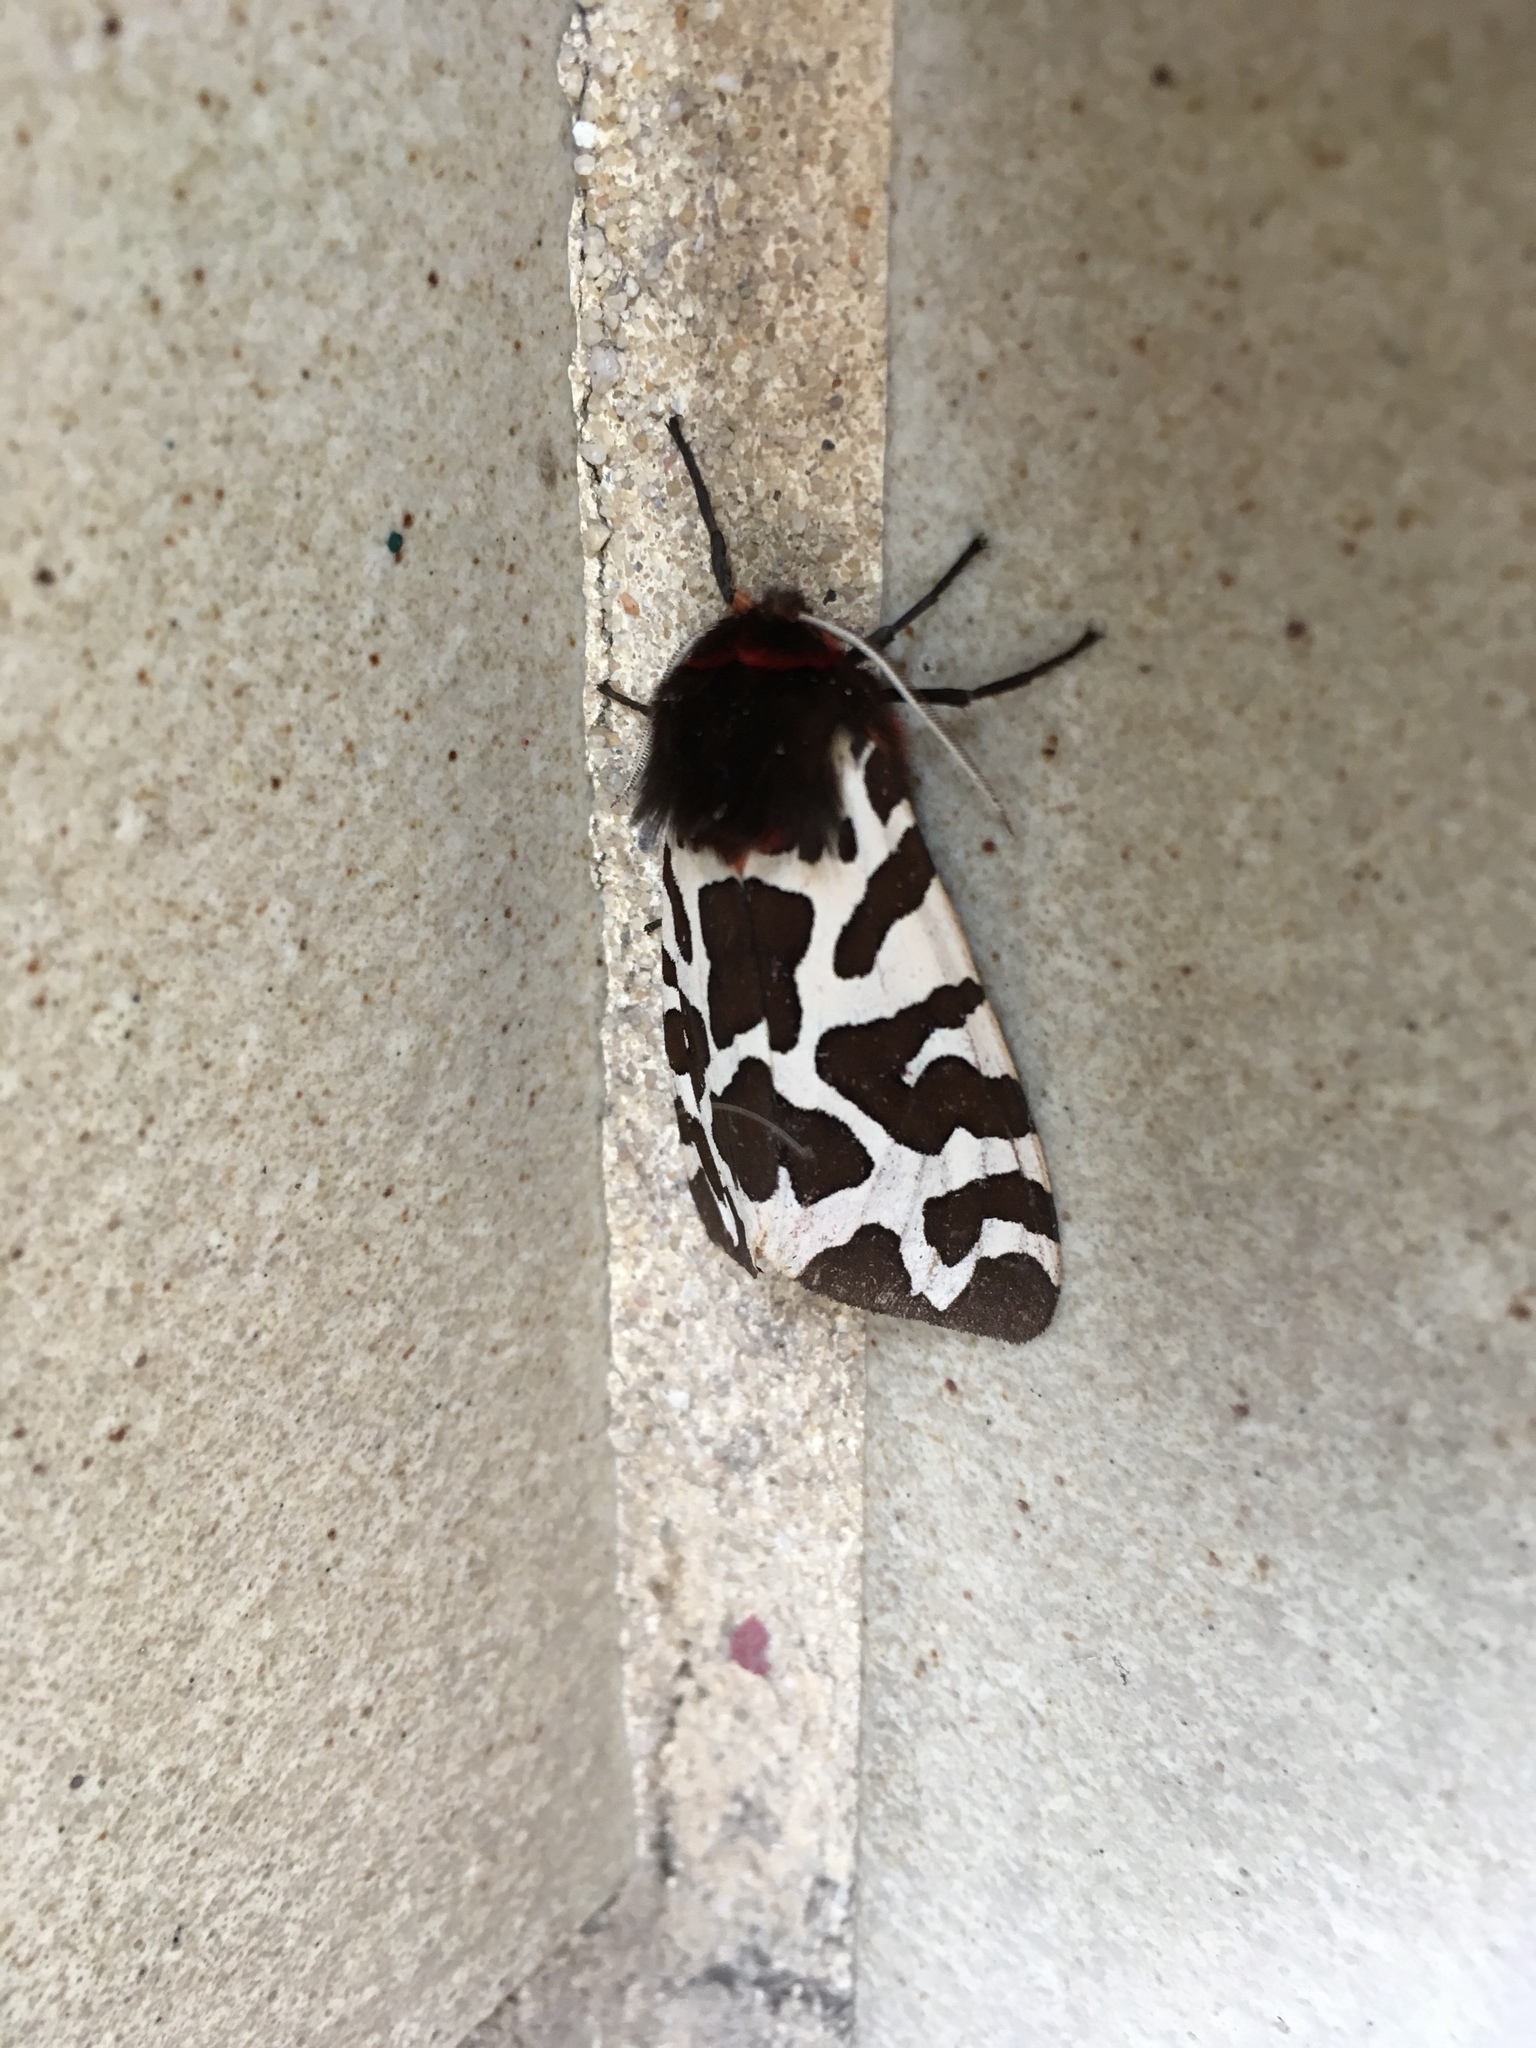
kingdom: Animalia
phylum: Arthropoda
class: Insecta
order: Lepidoptera
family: Erebidae
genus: Arctia
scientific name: Arctia caja
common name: Garden tiger
